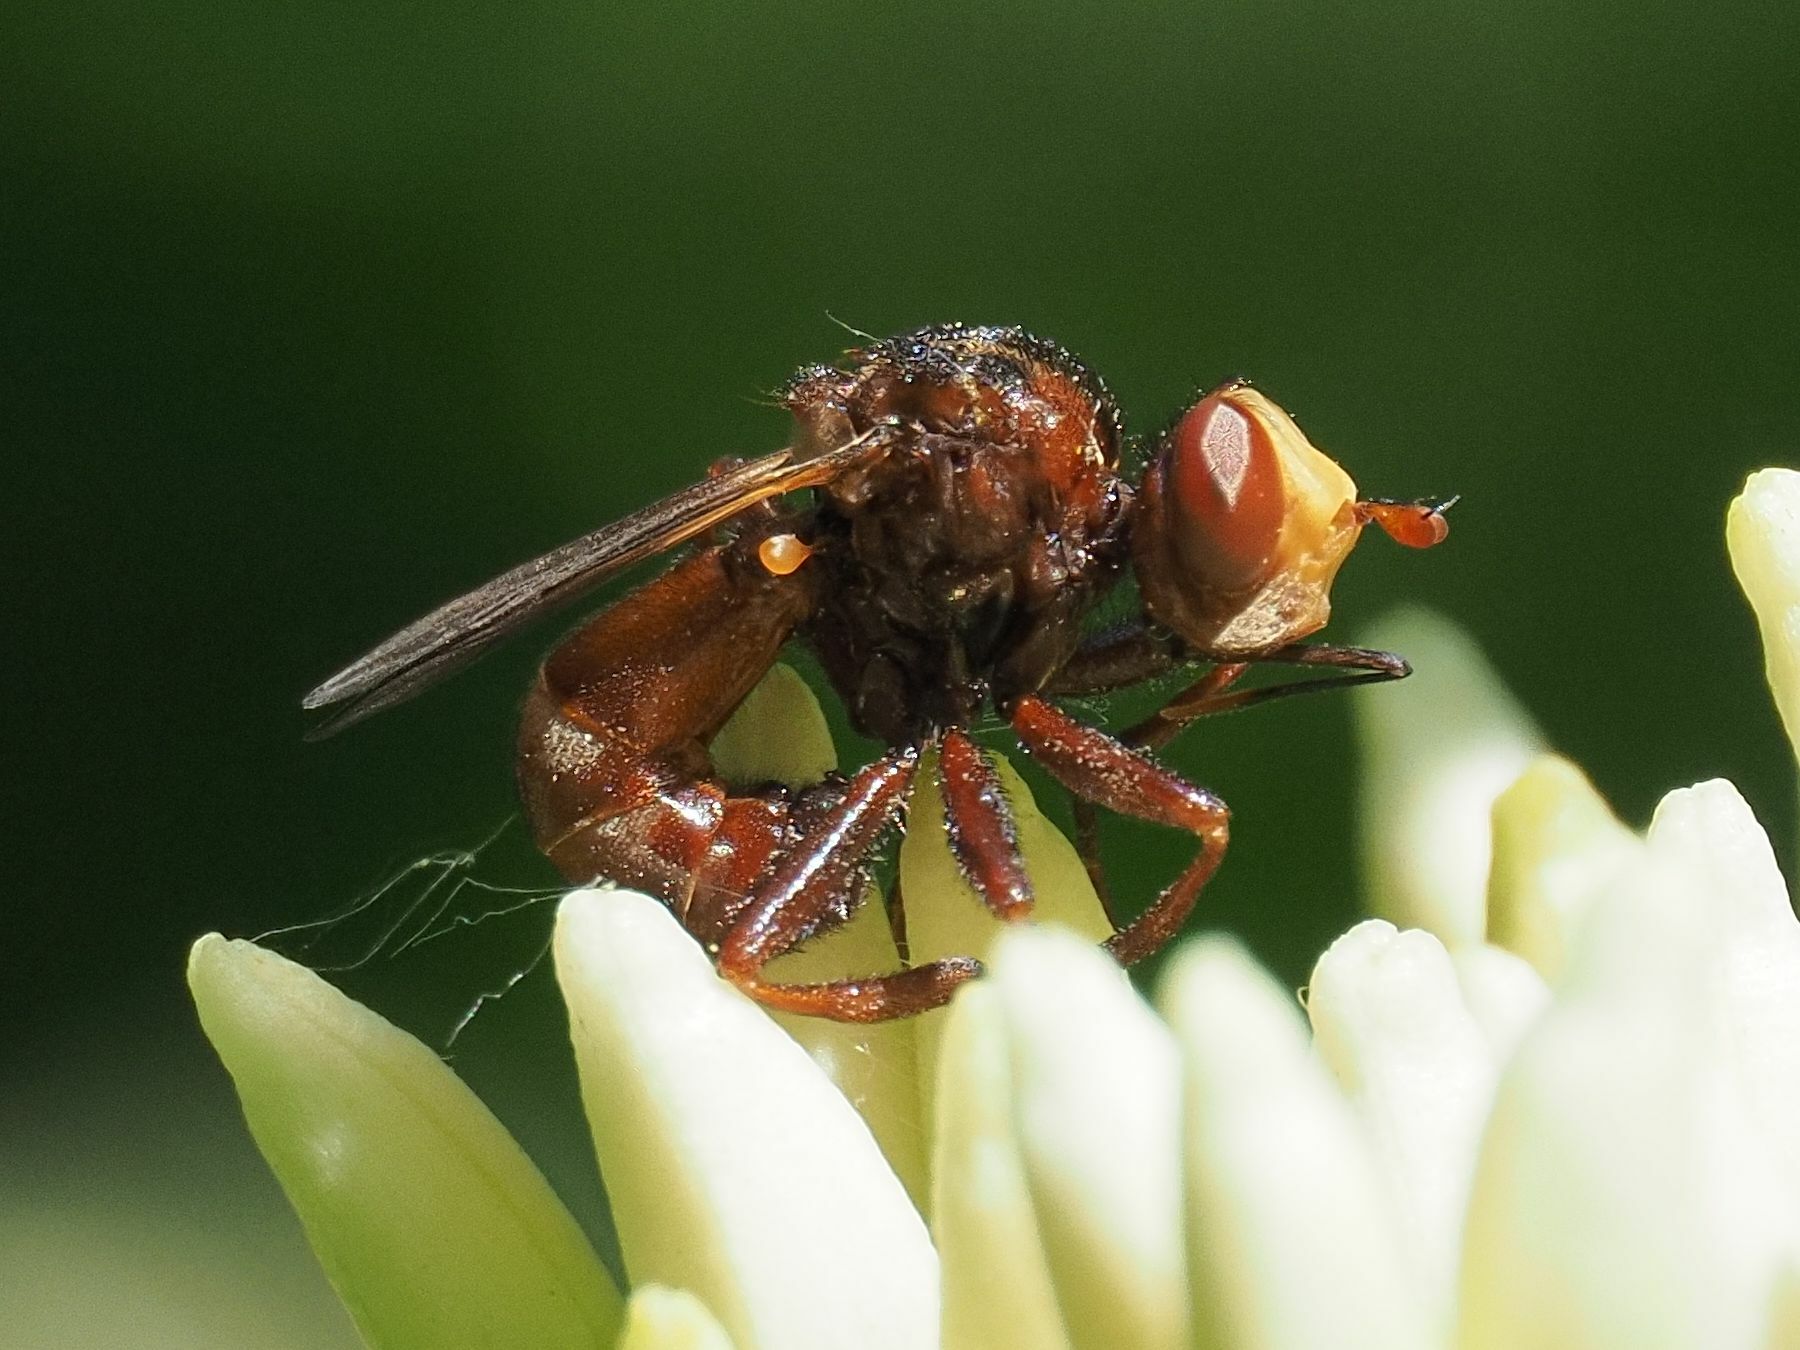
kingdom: Animalia
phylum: Arthropoda
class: Insecta
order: Diptera
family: Conopidae
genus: Sicus
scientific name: Sicus ferrugineus
